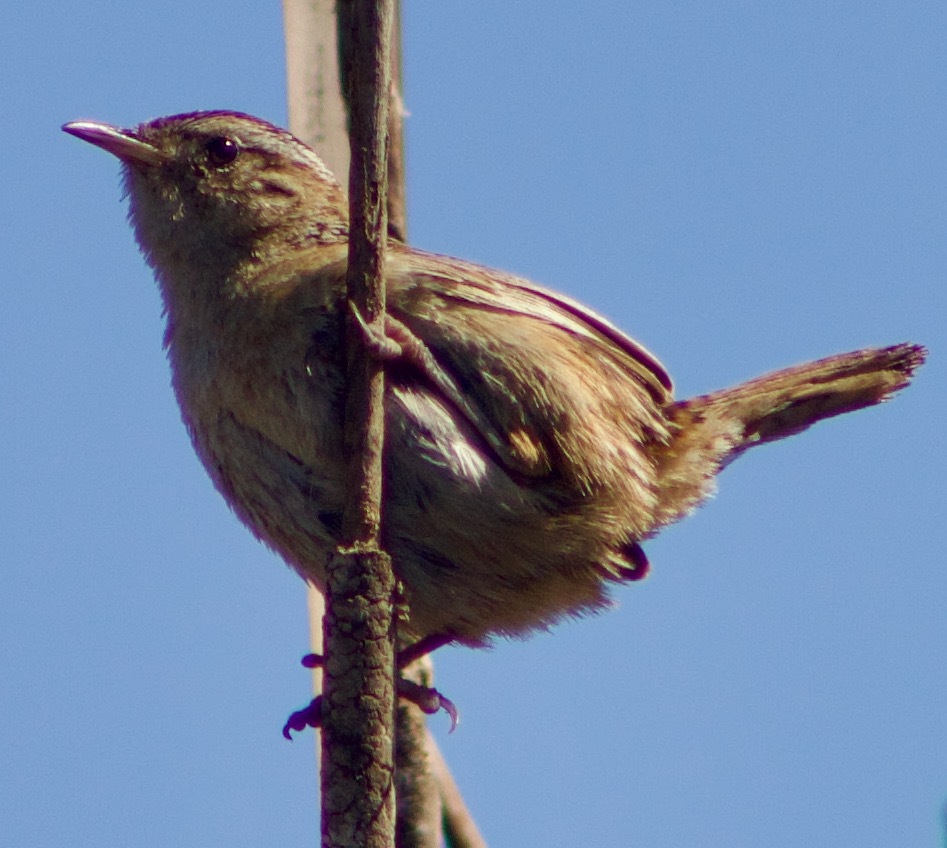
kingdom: Animalia
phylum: Chordata
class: Aves
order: Passeriformes
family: Troglodytidae
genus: Cistothorus
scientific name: Cistothorus platensis
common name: Sedge wren
